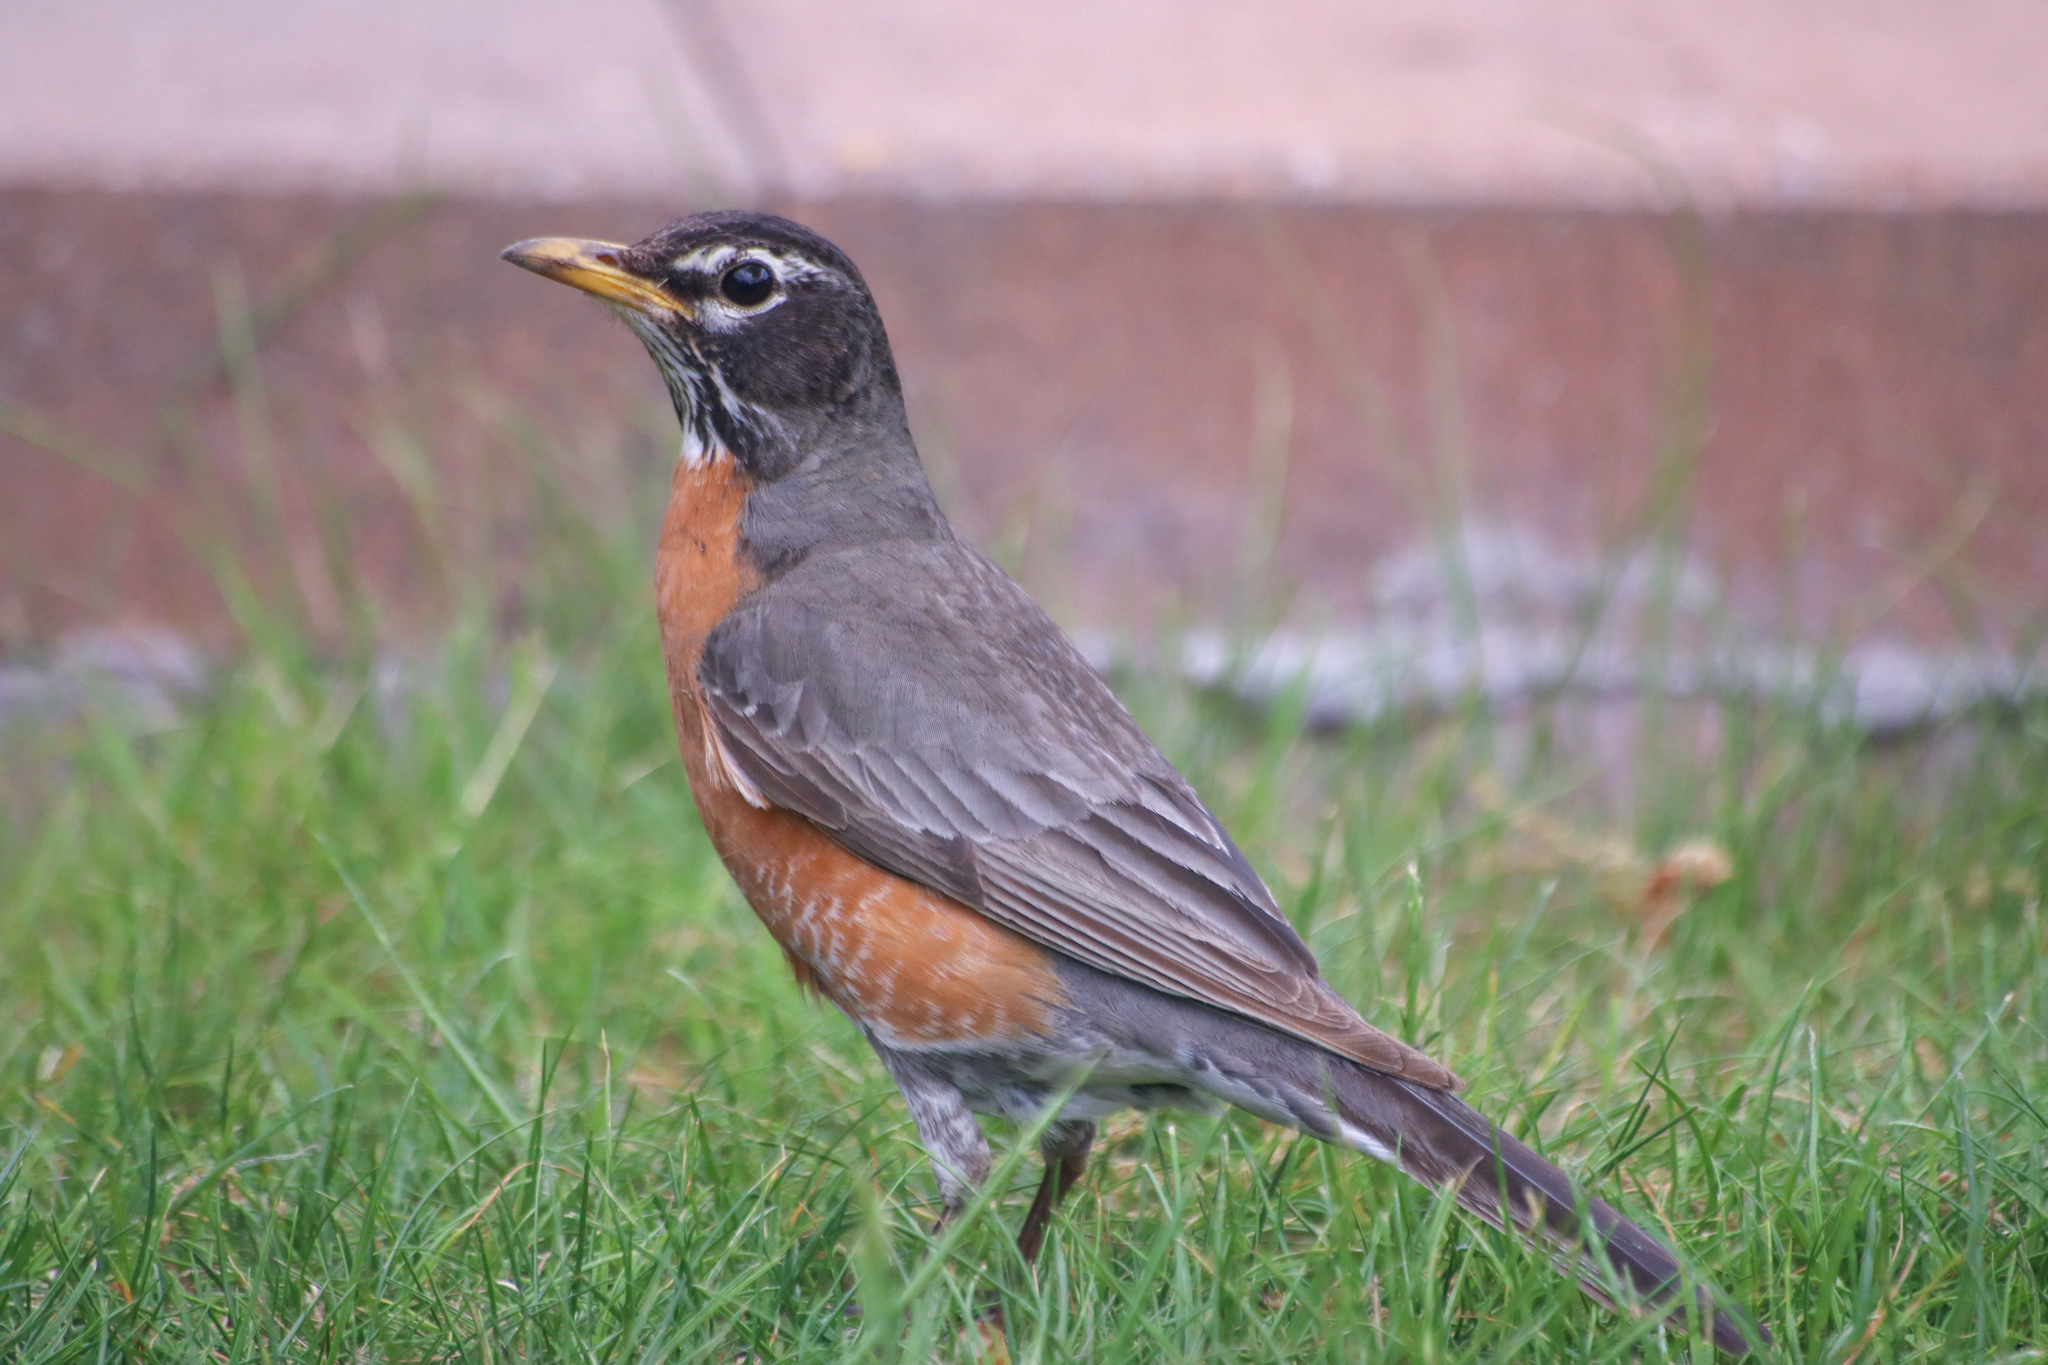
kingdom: Animalia
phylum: Chordata
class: Aves
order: Passeriformes
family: Turdidae
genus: Turdus
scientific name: Turdus migratorius
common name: American robin
